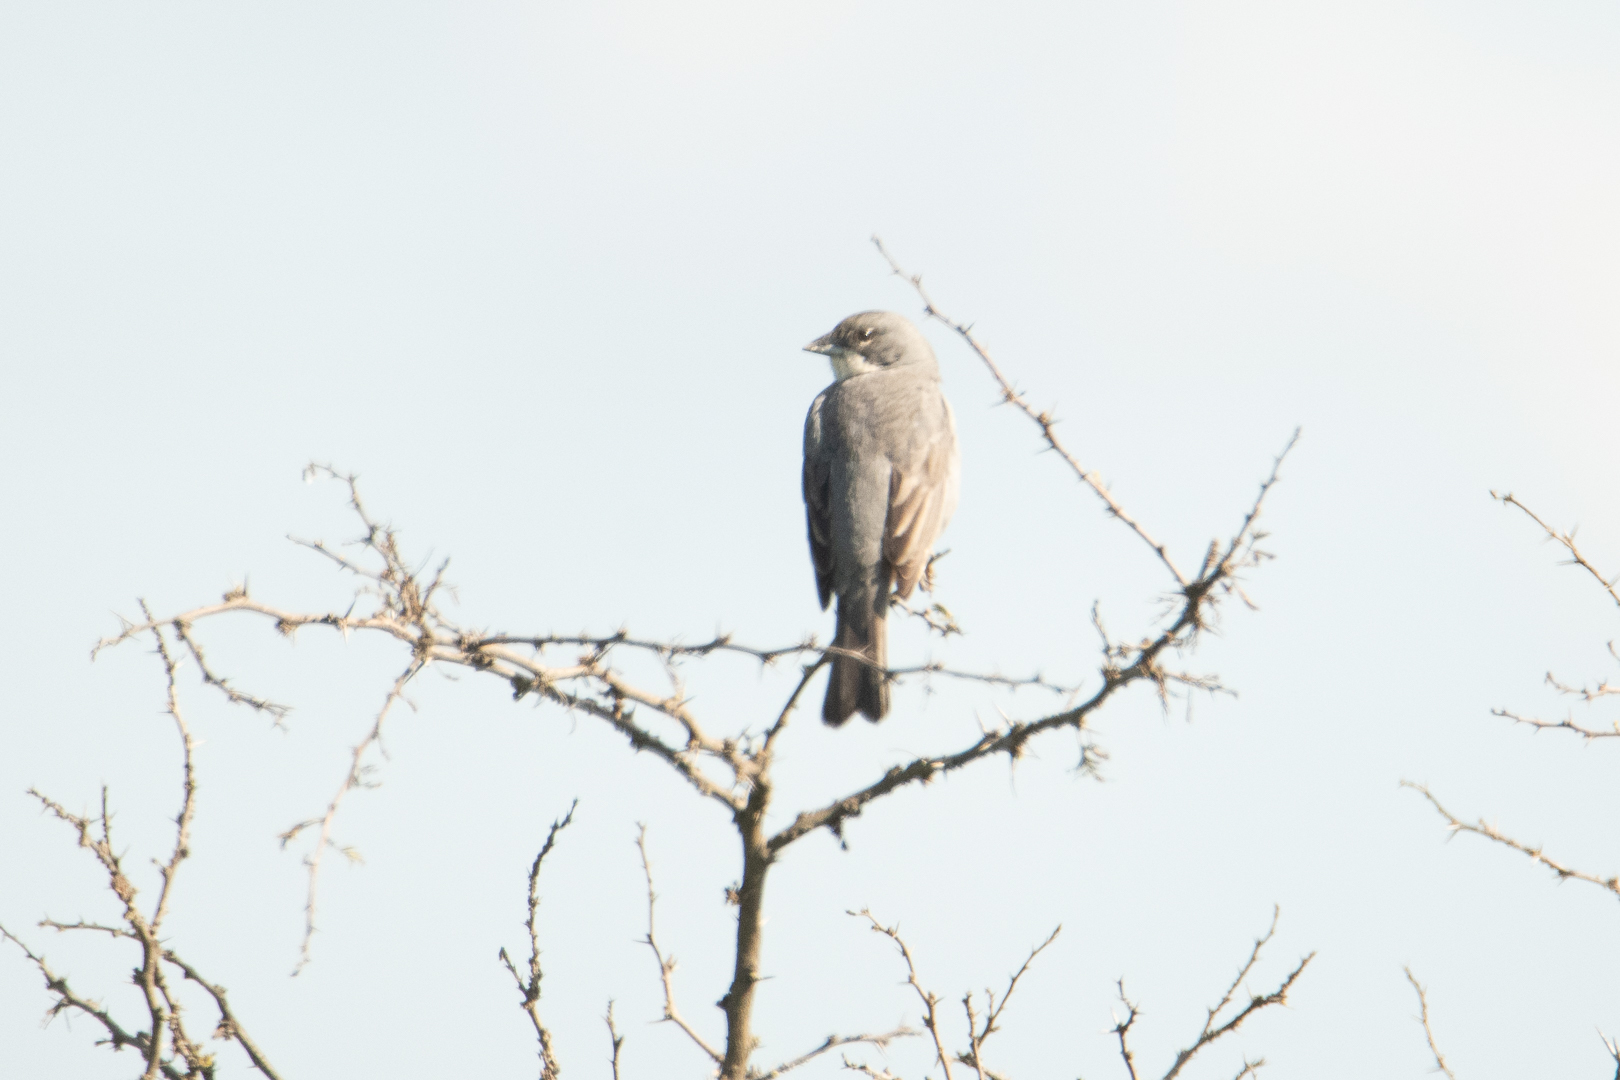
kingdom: Animalia
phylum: Chordata
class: Aves
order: Passeriformes
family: Thraupidae
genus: Diuca
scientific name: Diuca diuca
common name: Common diuca finch
